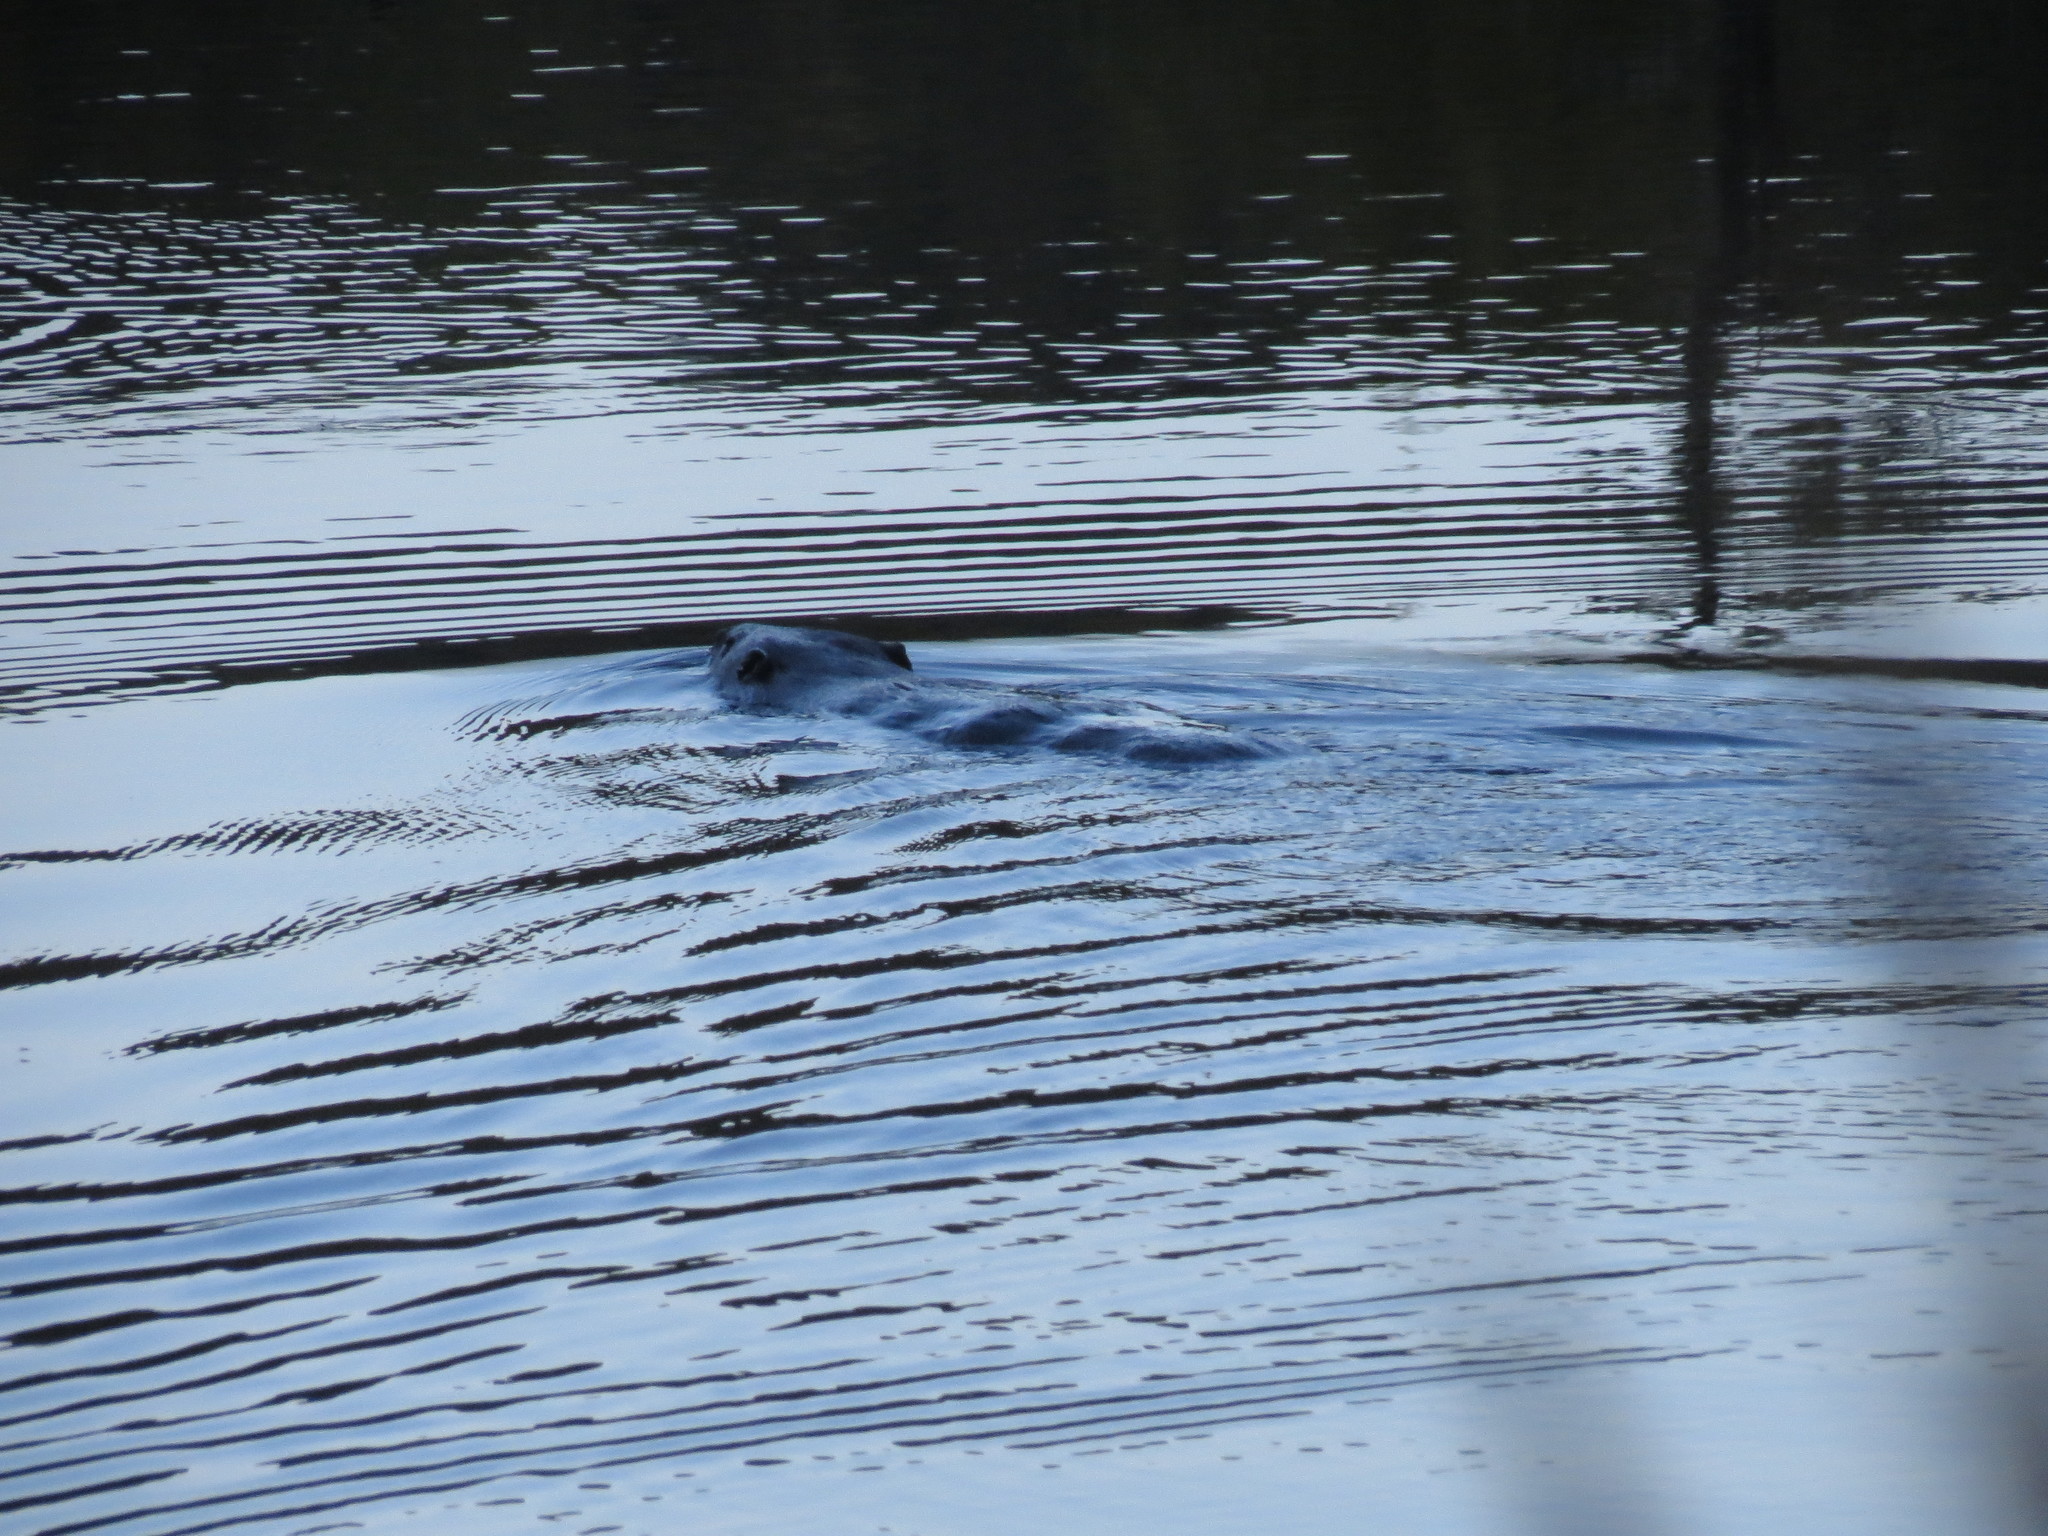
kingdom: Animalia
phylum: Chordata
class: Mammalia
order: Rodentia
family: Castoridae
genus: Castor
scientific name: Castor canadensis
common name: American beaver
